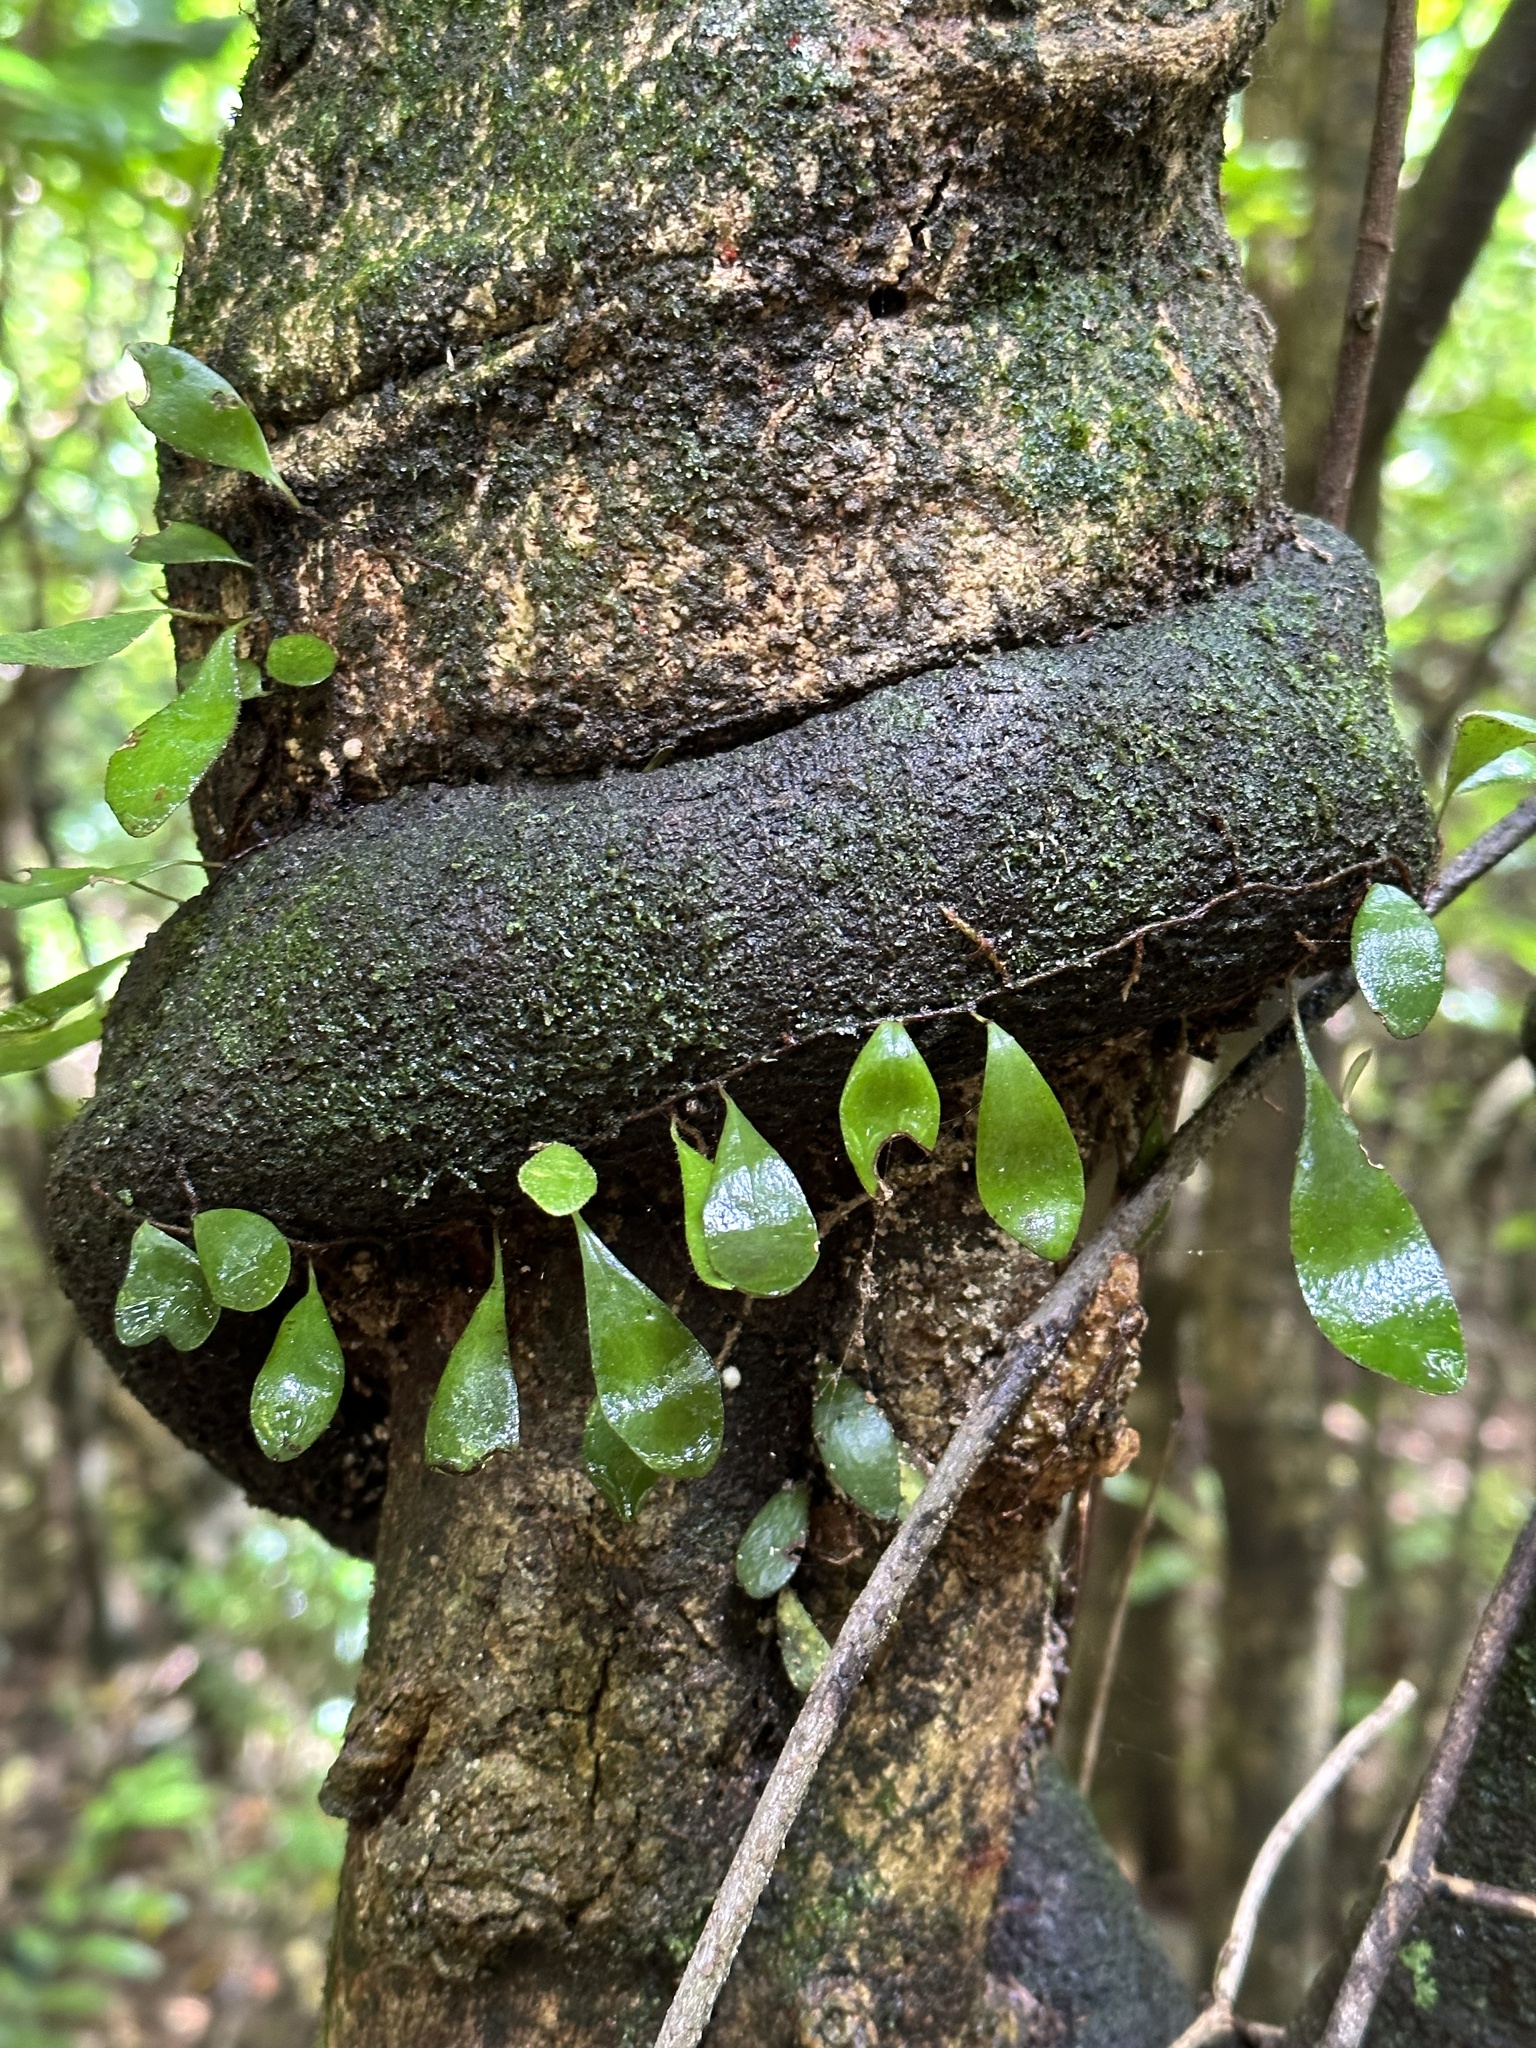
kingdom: Plantae
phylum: Tracheophyta
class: Polypodiopsida
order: Polypodiales
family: Polypodiaceae
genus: Pyrrosia
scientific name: Pyrrosia eleagnifolia
